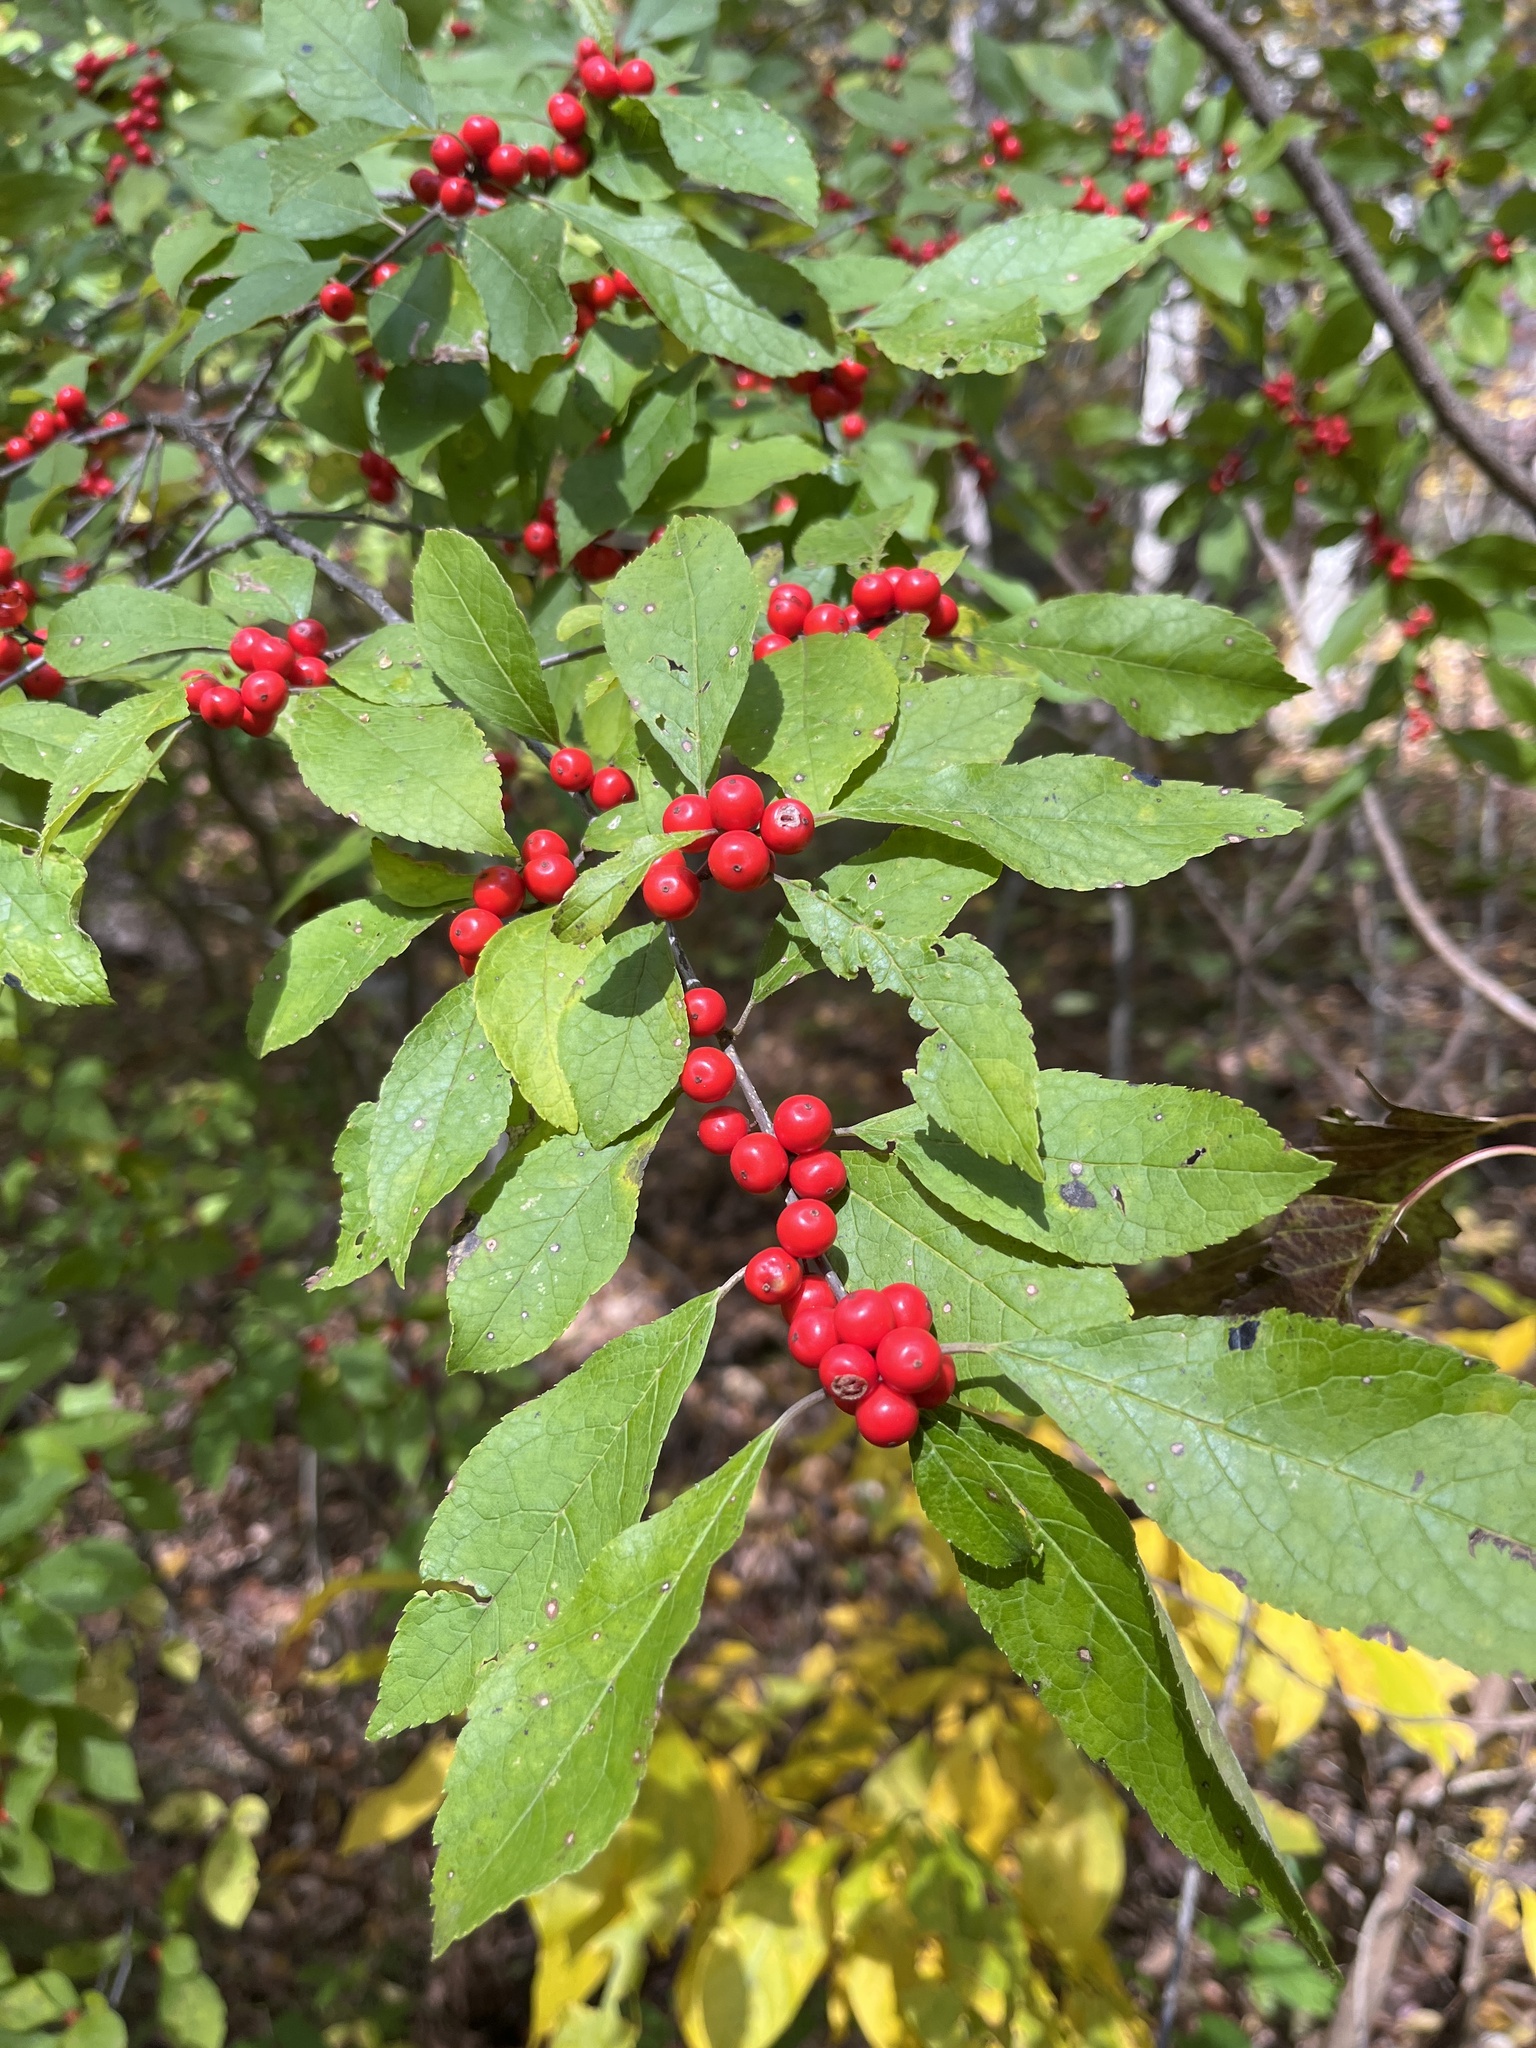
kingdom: Plantae
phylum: Tracheophyta
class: Magnoliopsida
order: Aquifoliales
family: Aquifoliaceae
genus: Ilex
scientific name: Ilex verticillata
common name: Virginia winterberry
